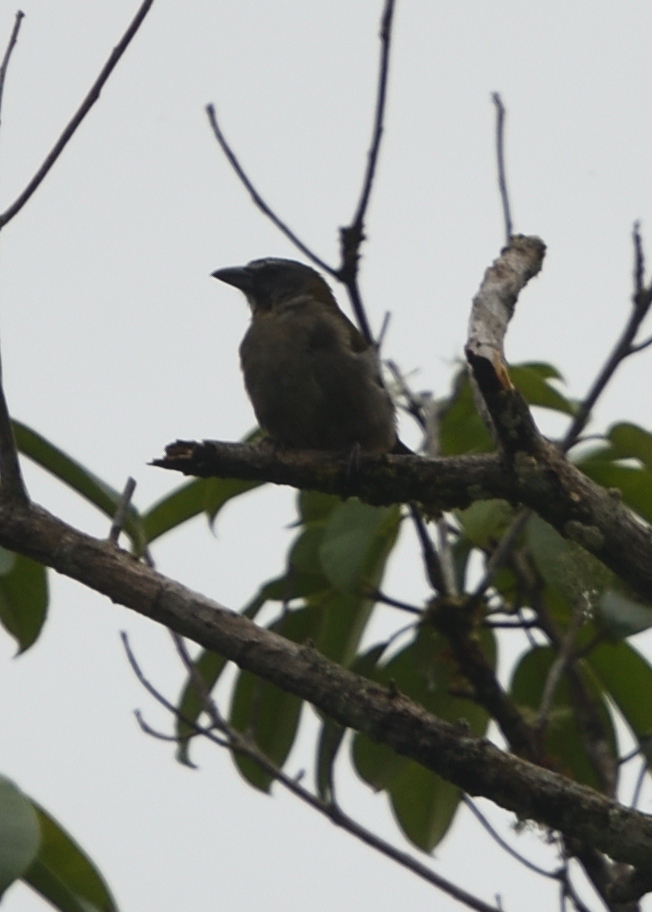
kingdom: Animalia
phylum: Chordata
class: Aves
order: Passeriformes
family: Thraupidae
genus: Saltator
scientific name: Saltator coerulescens
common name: Grayish saltator
